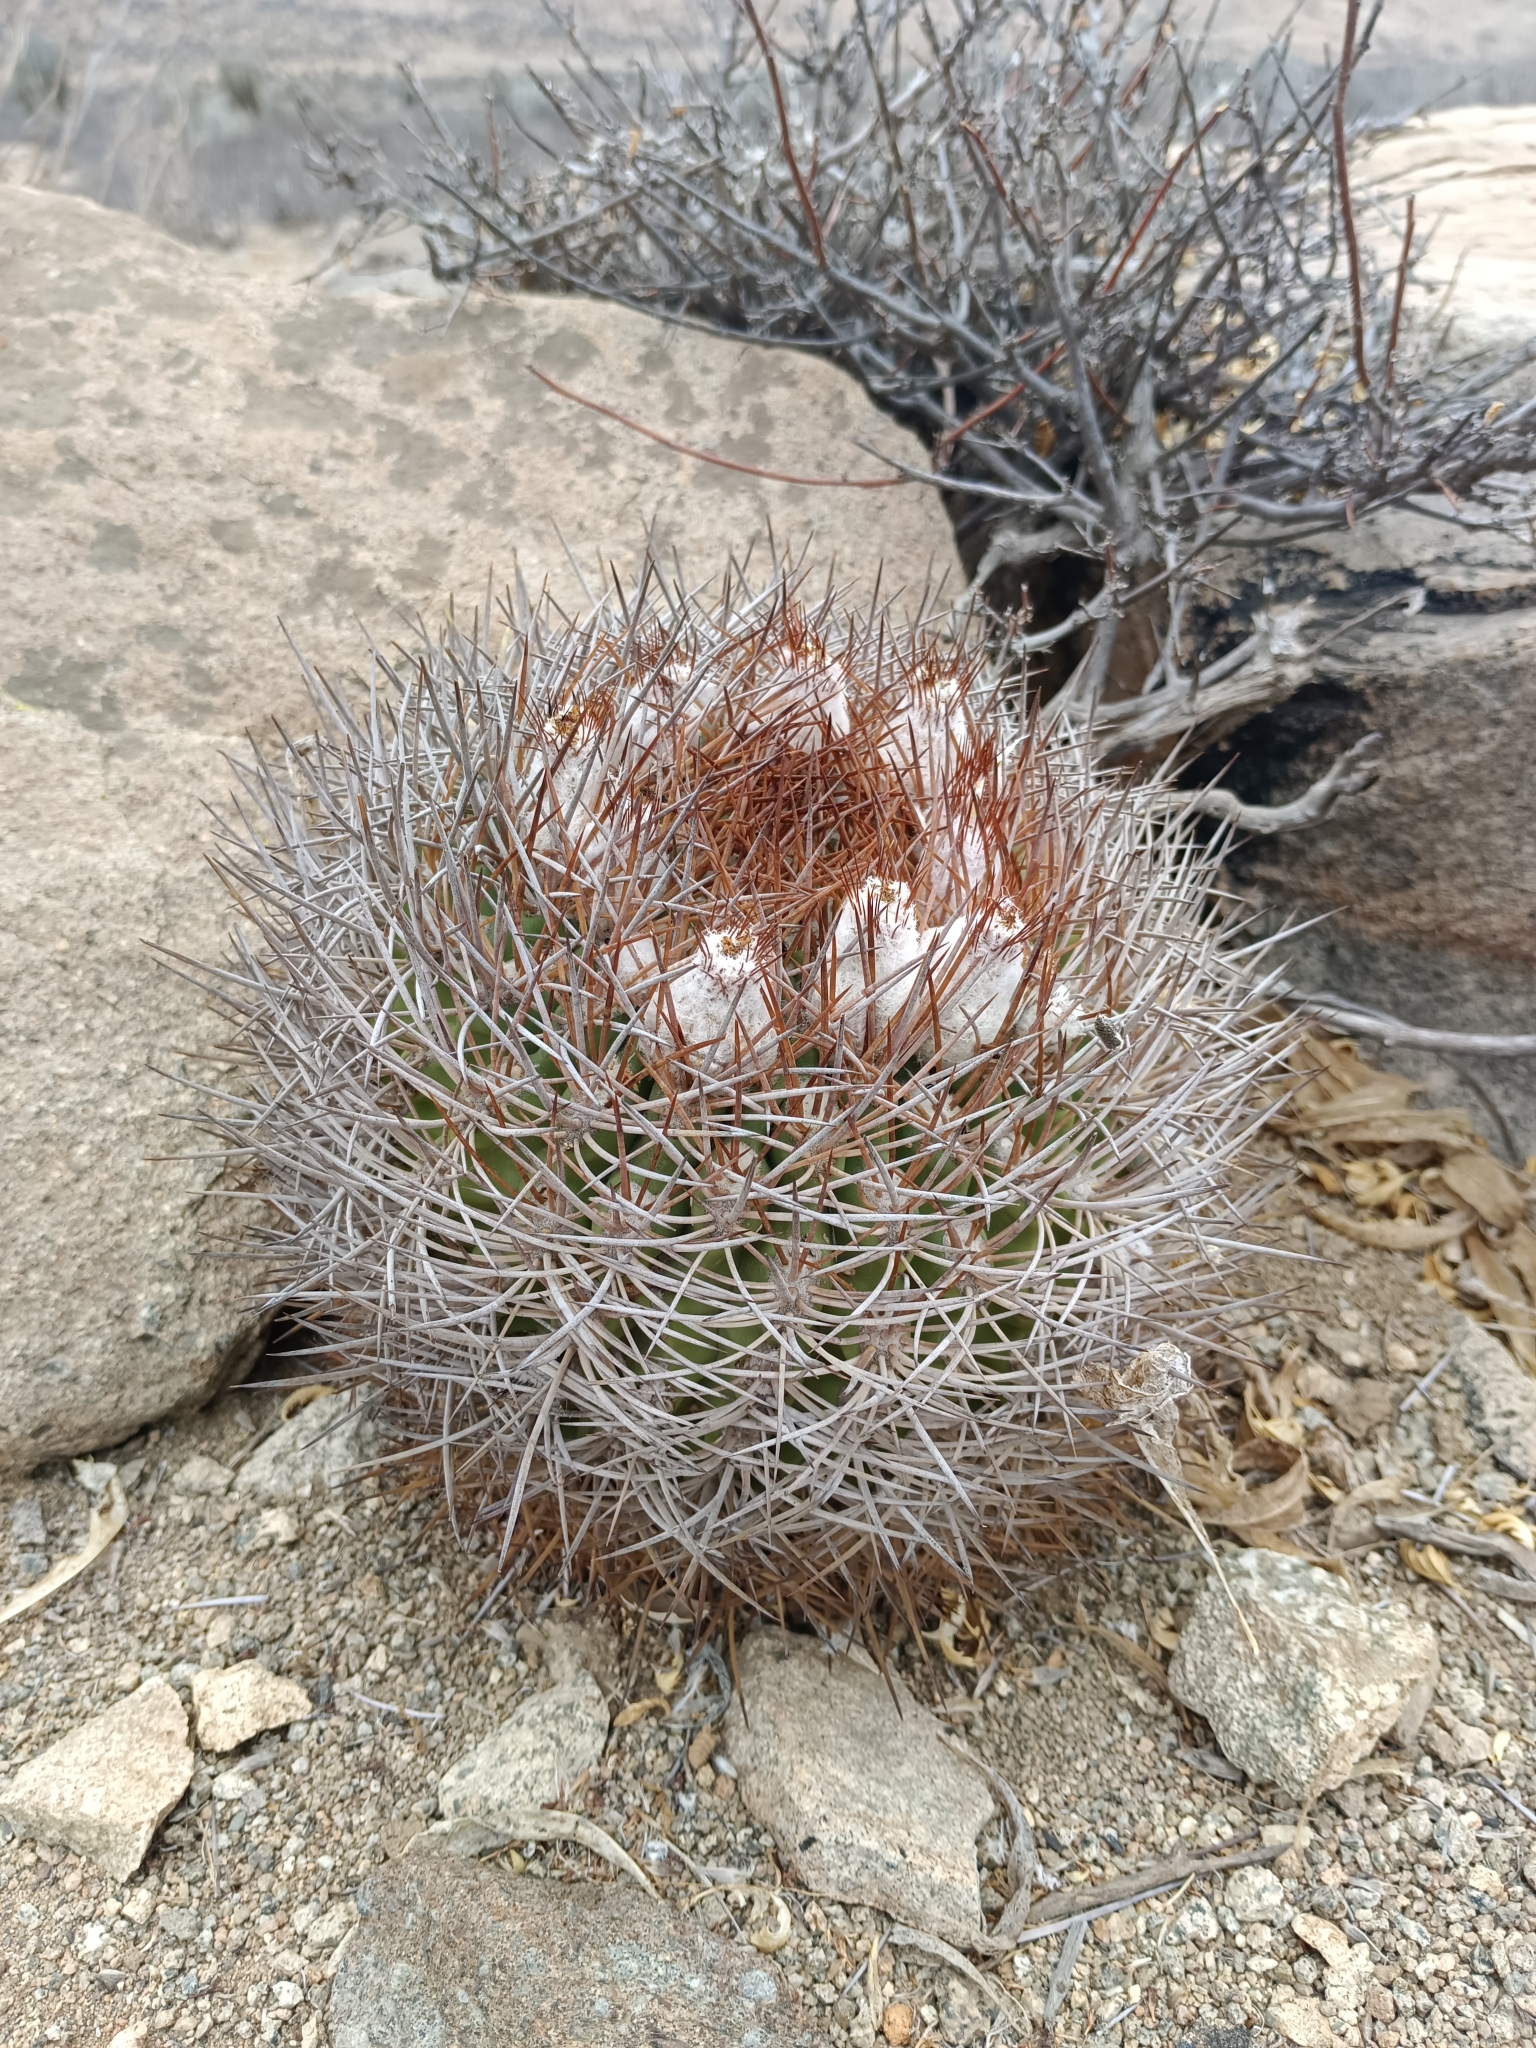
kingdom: Plantae
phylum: Tracheophyta
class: Magnoliopsida
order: Caryophyllales
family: Cactaceae
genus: Eriosyce
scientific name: Eriosyce aurata
